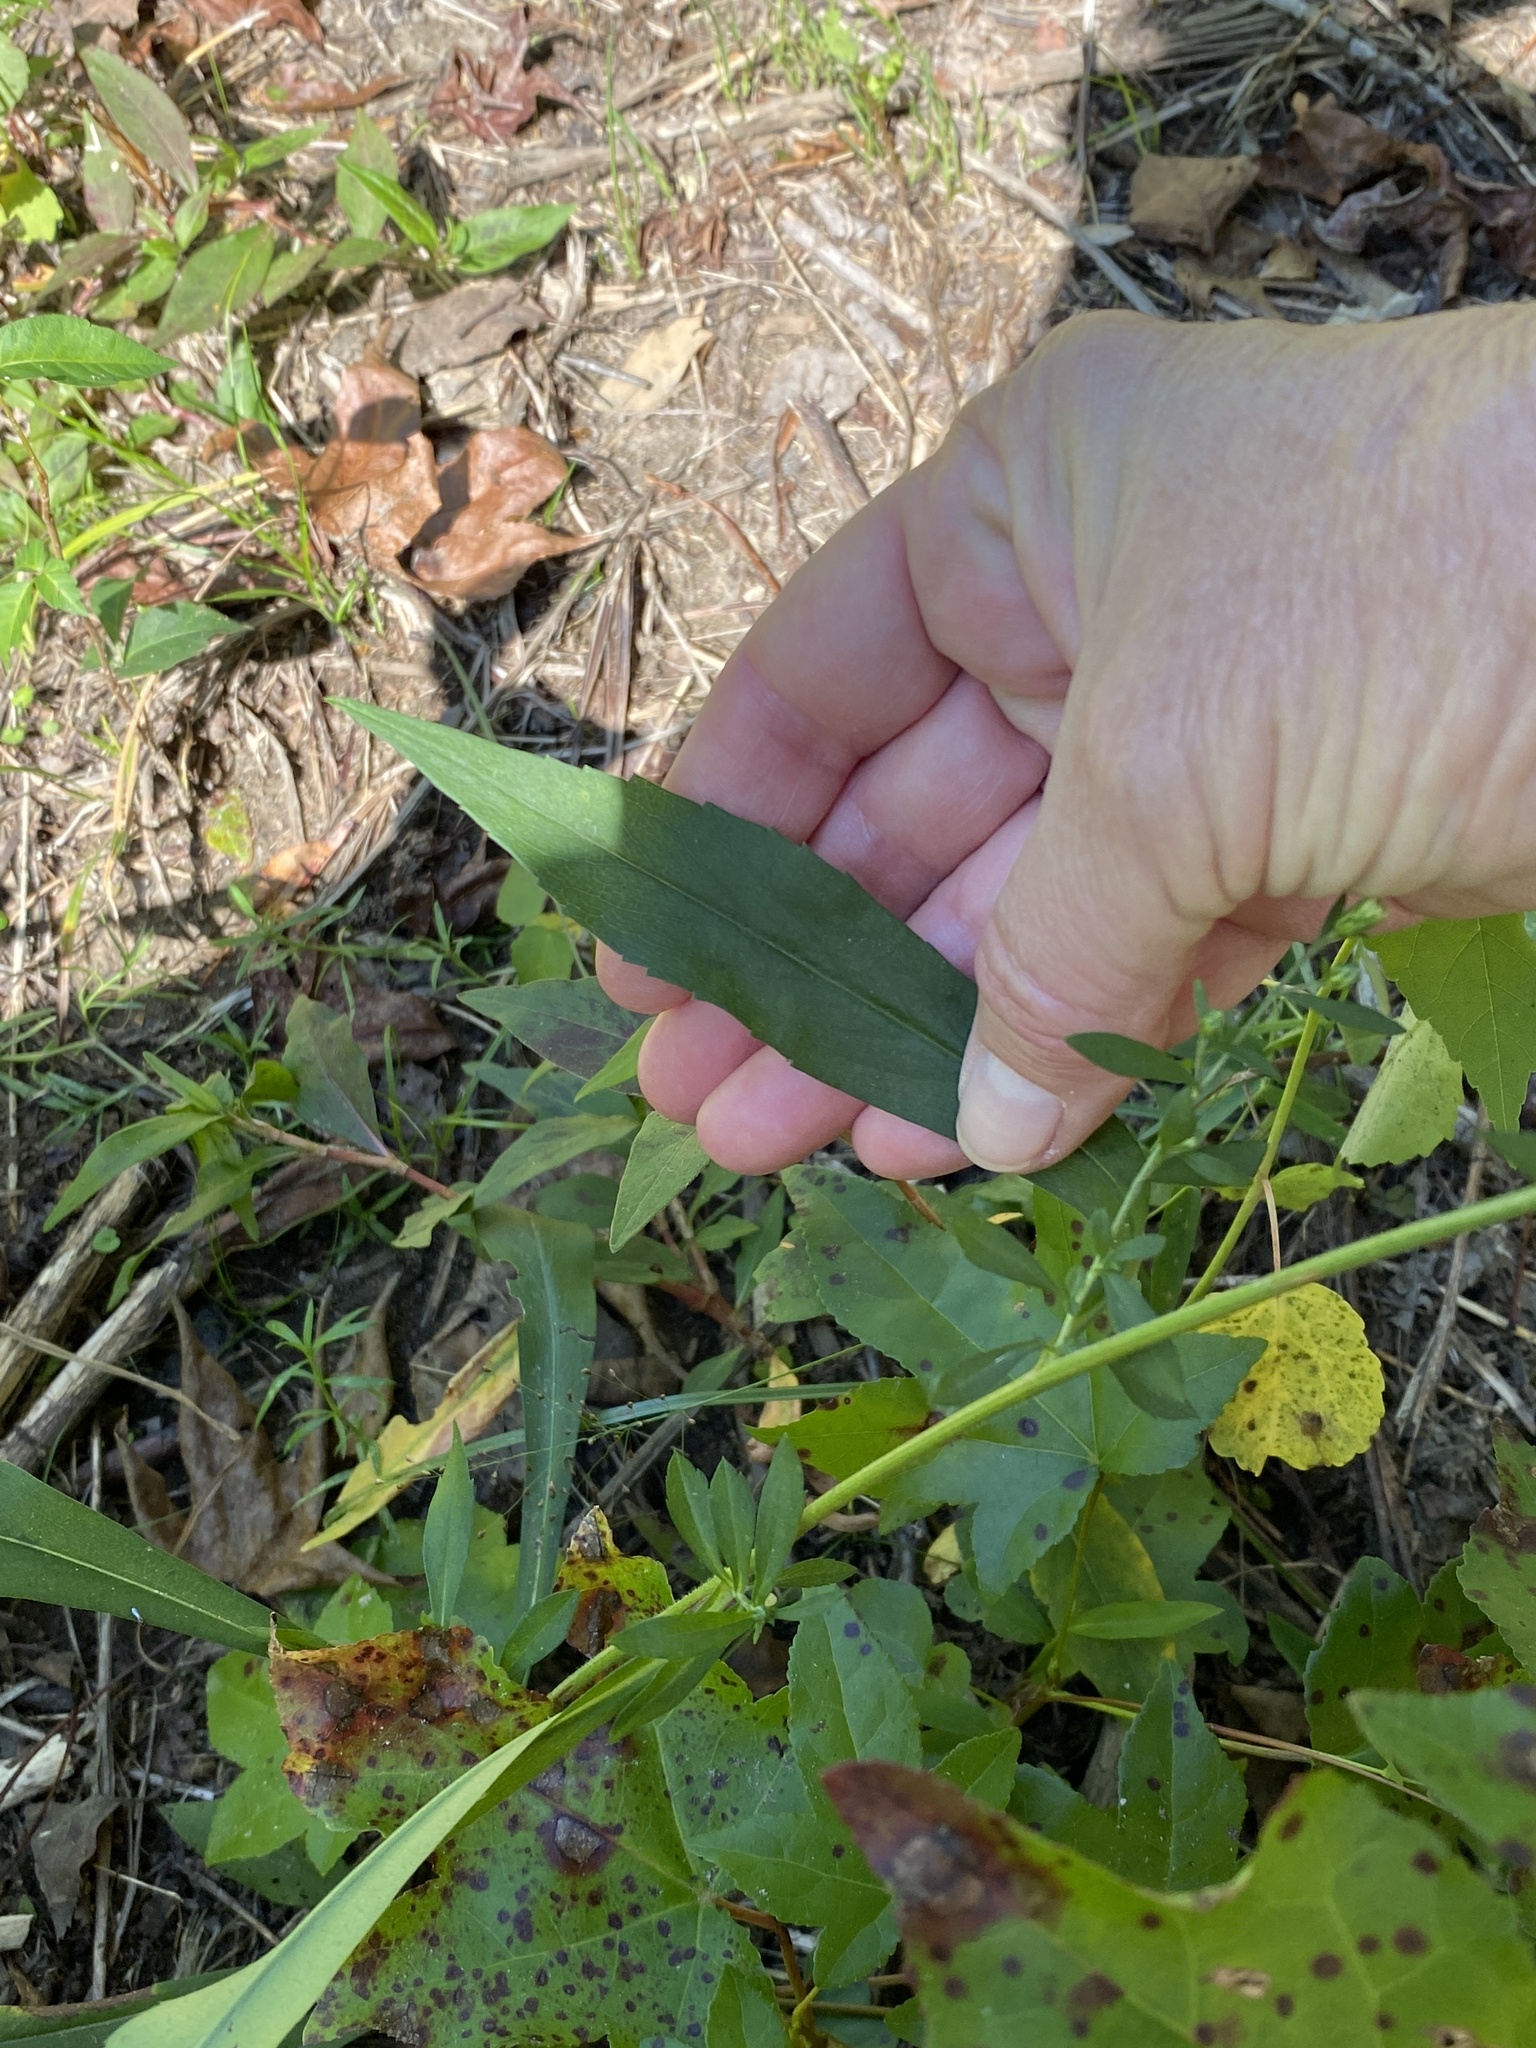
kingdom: Plantae
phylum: Tracheophyta
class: Magnoliopsida
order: Asterales
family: Asteraceae
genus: Symphyotrichum
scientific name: Symphyotrichum lanceolatum
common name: Panicled aster
